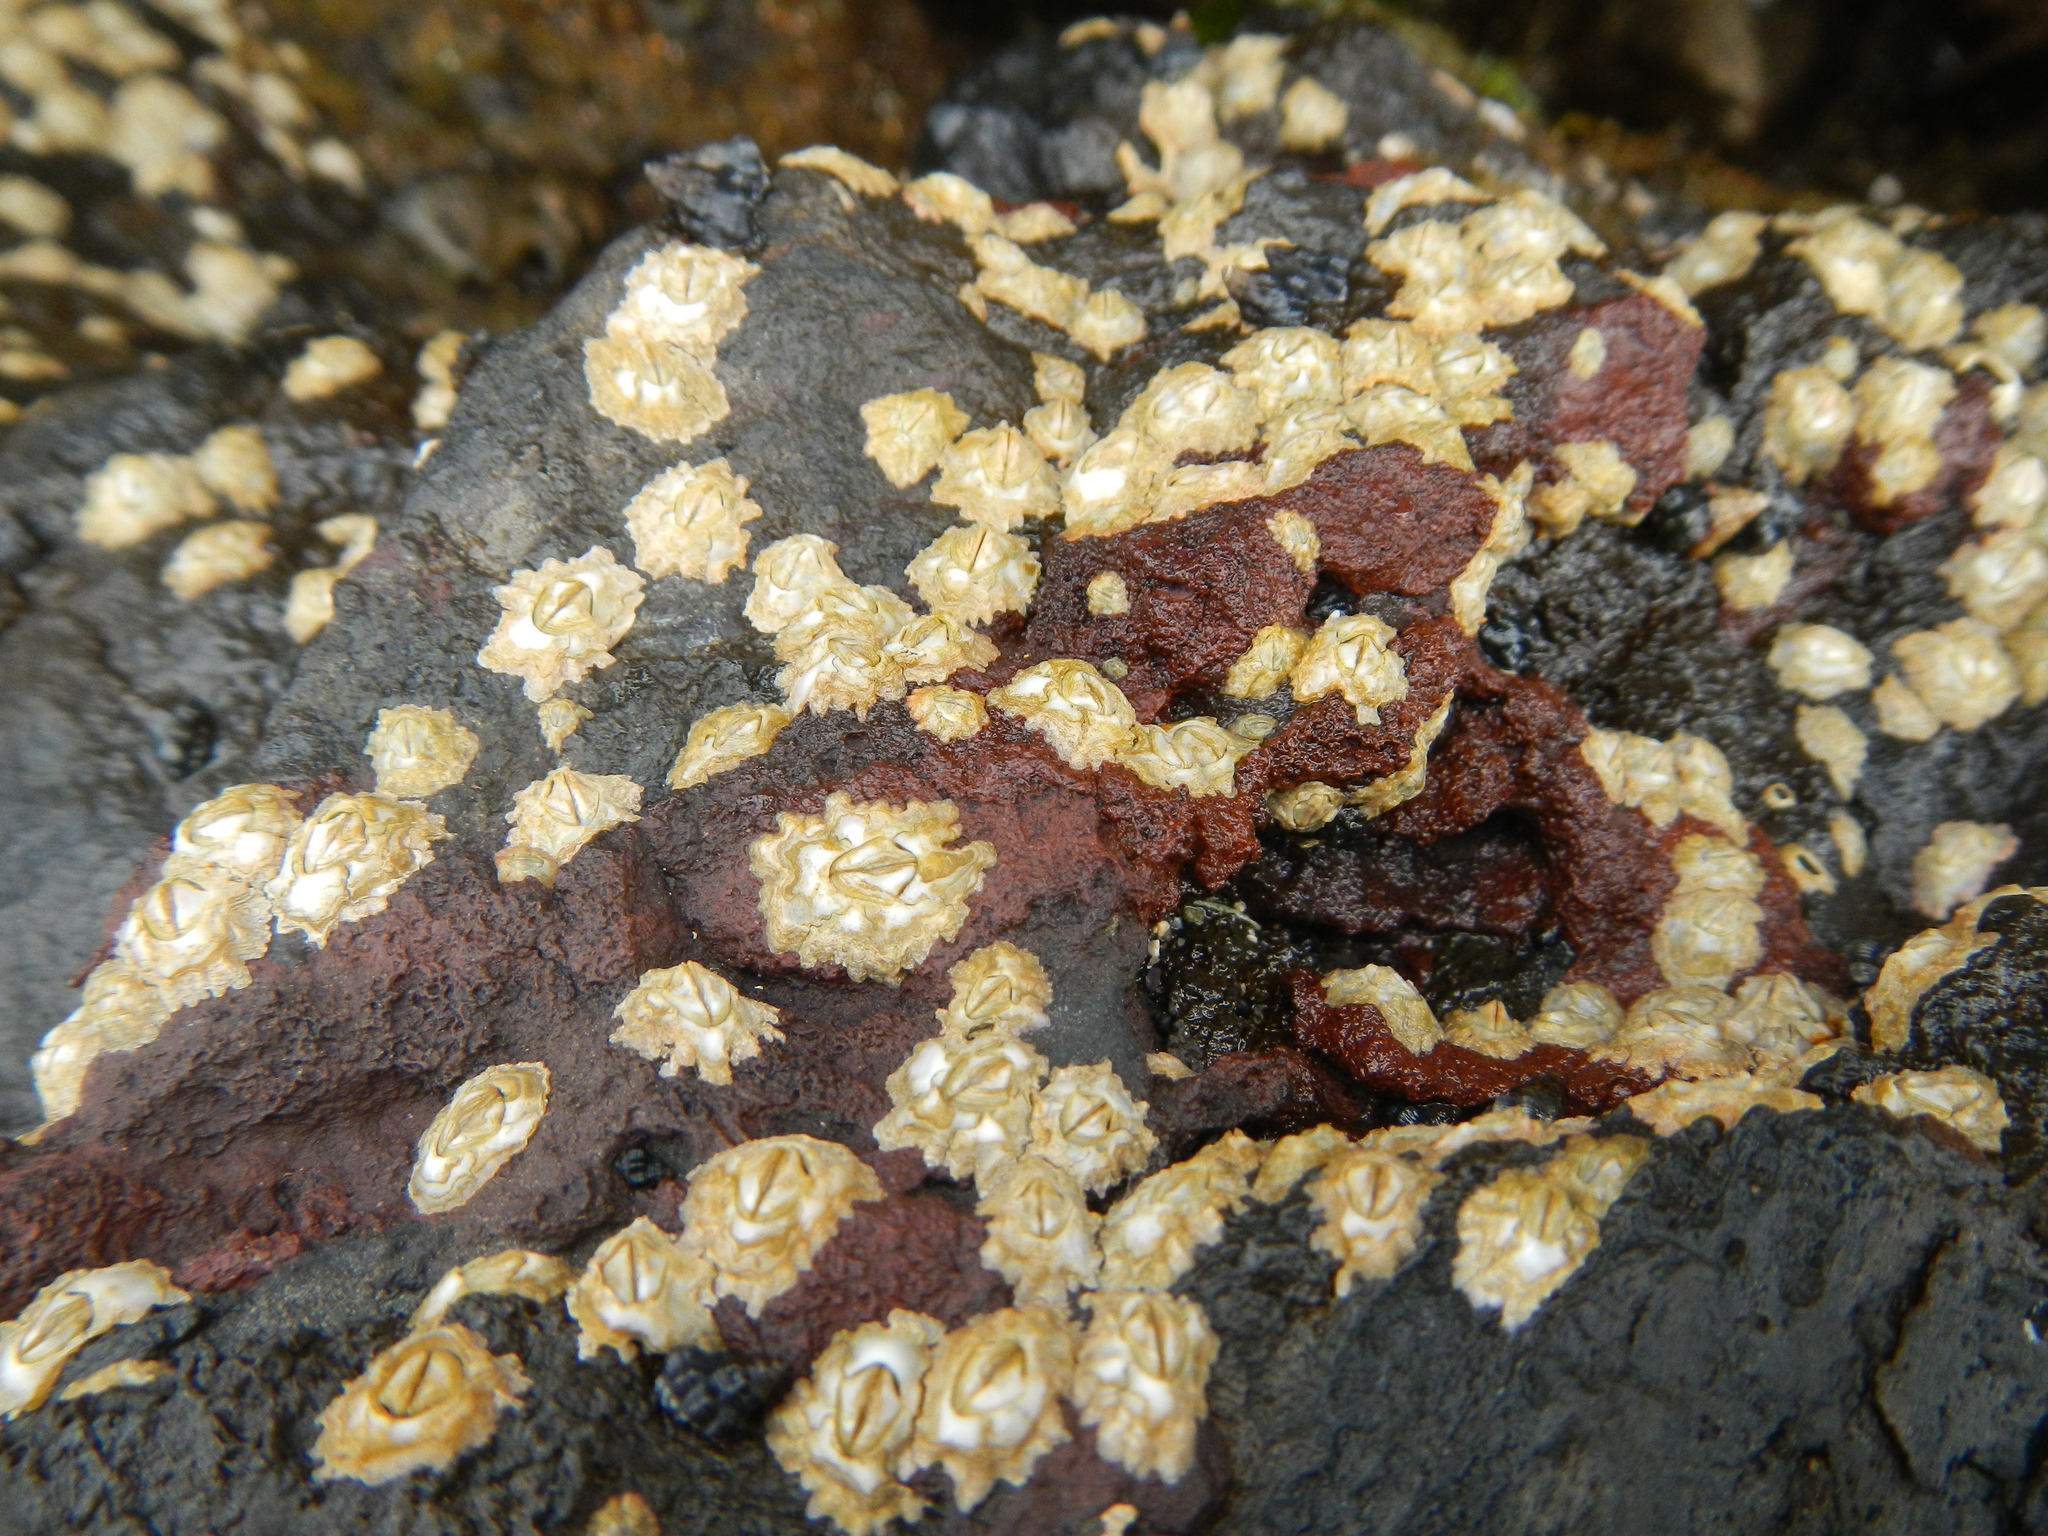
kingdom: Animalia
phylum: Arthropoda
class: Maxillopoda
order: Sessilia
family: Chthamalidae
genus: Rehderella
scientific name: Rehderella belyaevi
